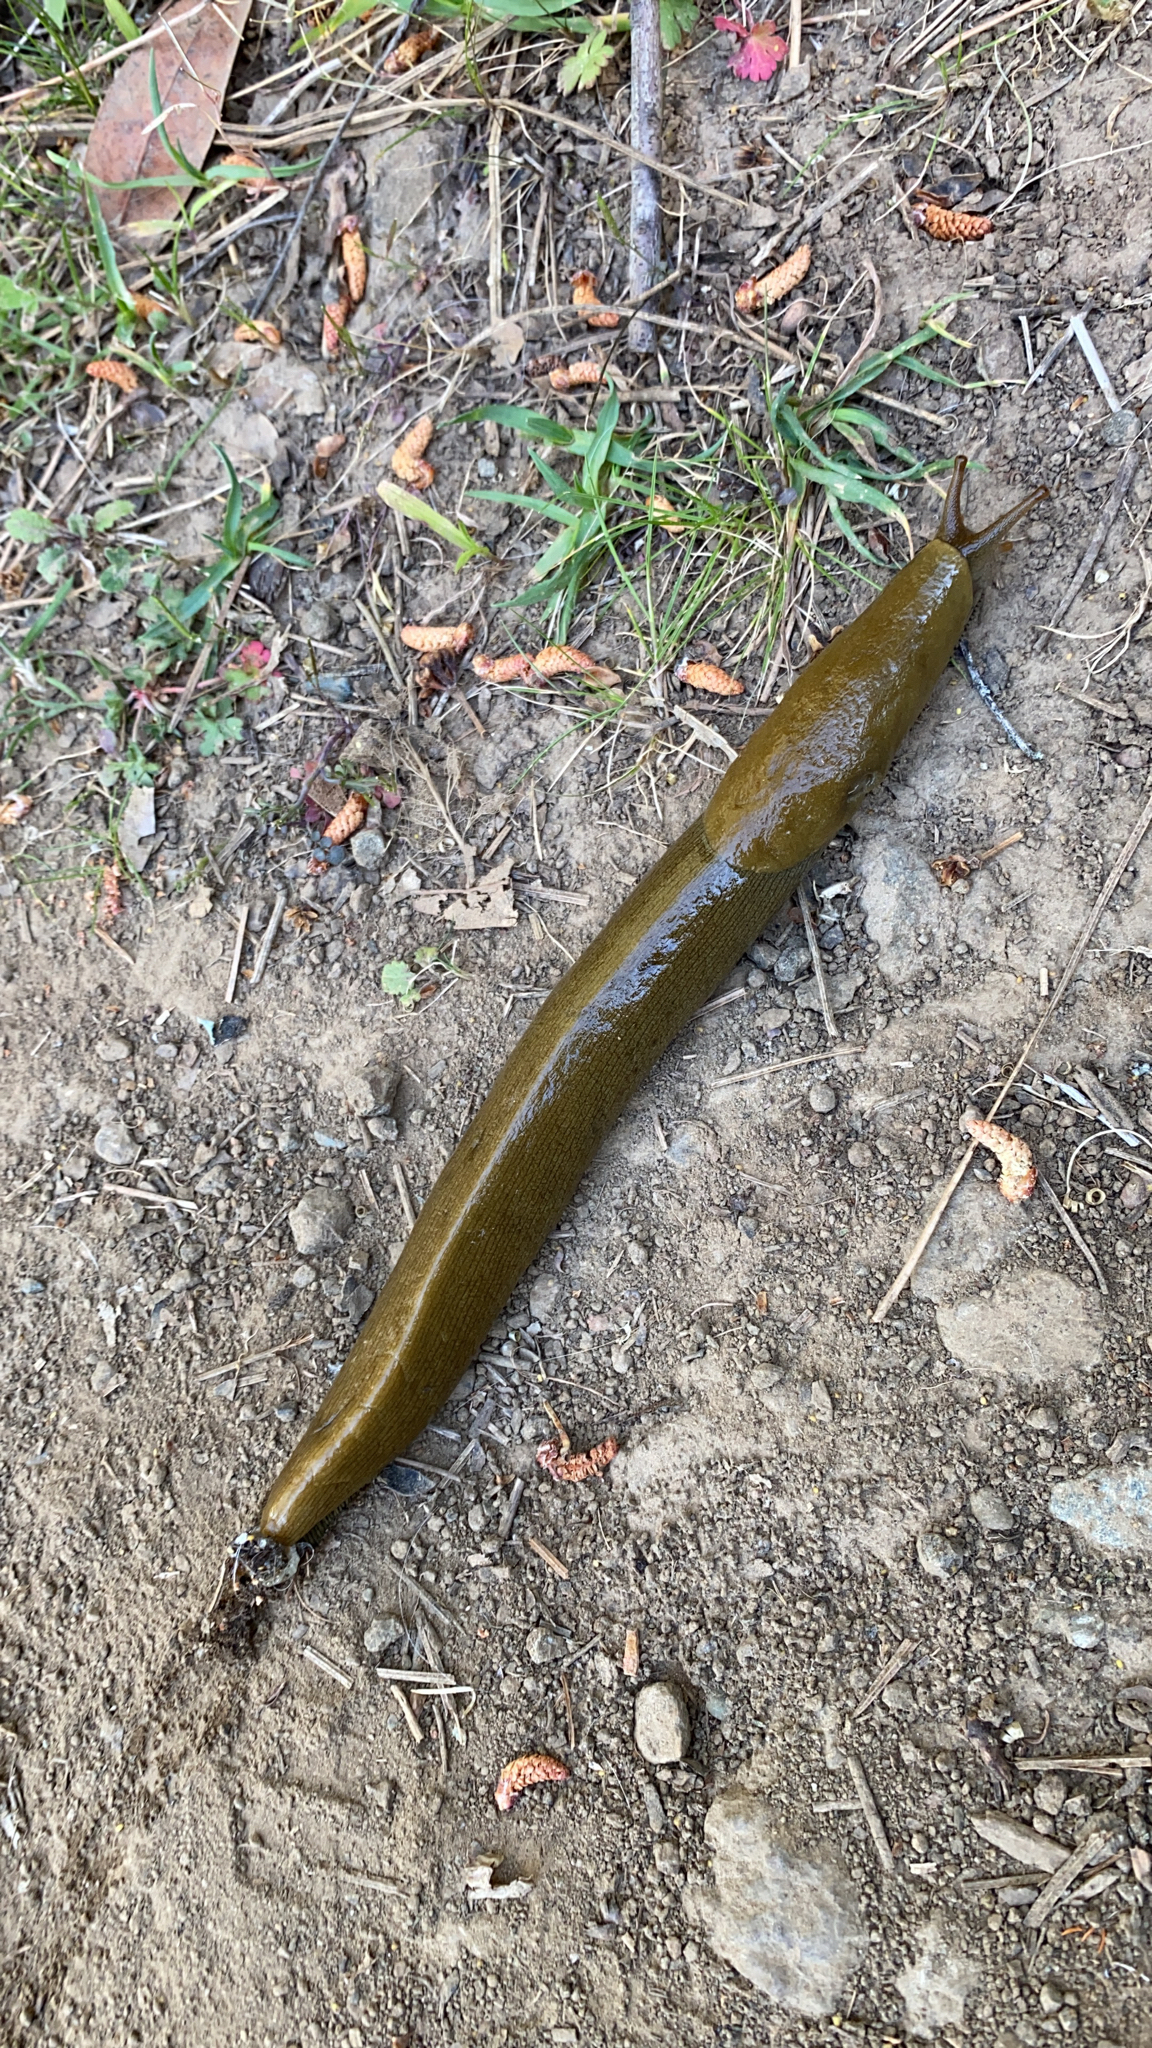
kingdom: Animalia
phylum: Mollusca
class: Gastropoda
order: Stylommatophora
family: Ariolimacidae
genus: Ariolimax
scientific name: Ariolimax buttoni
